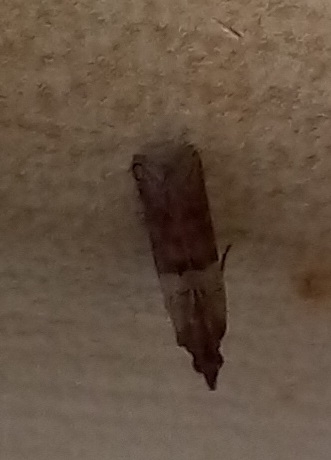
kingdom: Animalia
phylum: Arthropoda
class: Insecta
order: Lepidoptera
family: Pyralidae
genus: Plodia
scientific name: Plodia interpunctella
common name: Indian meal moth
